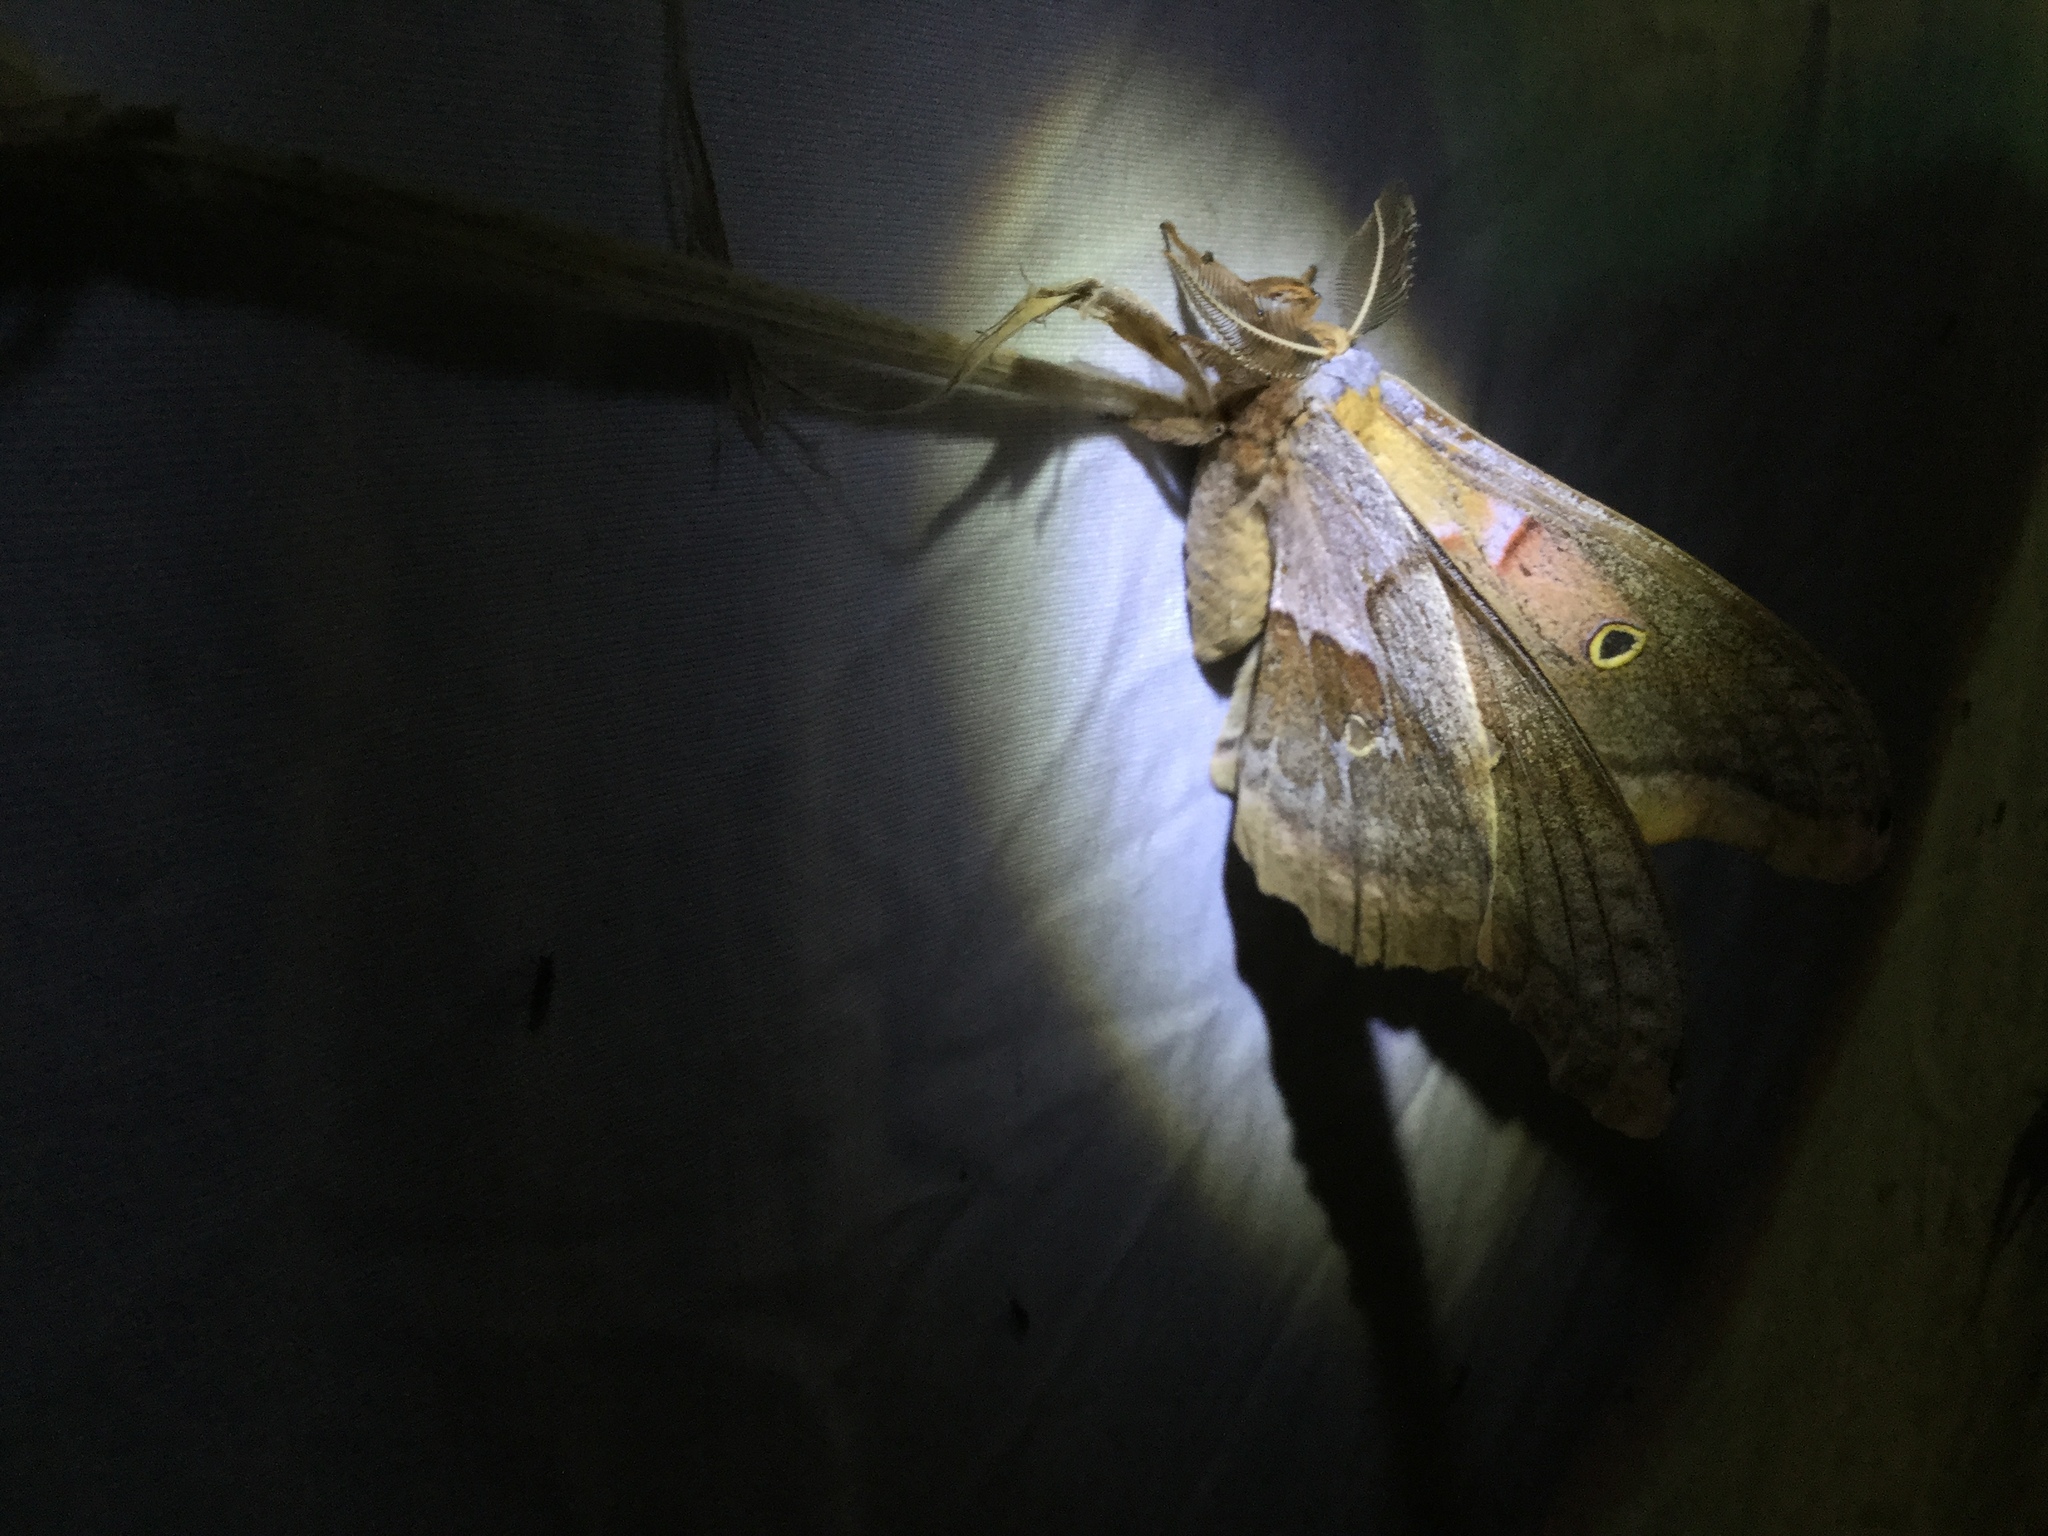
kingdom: Animalia
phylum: Arthropoda
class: Insecta
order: Lepidoptera
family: Saturniidae
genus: Antheraea
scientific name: Antheraea polyphemus
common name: Polyphemus moth
